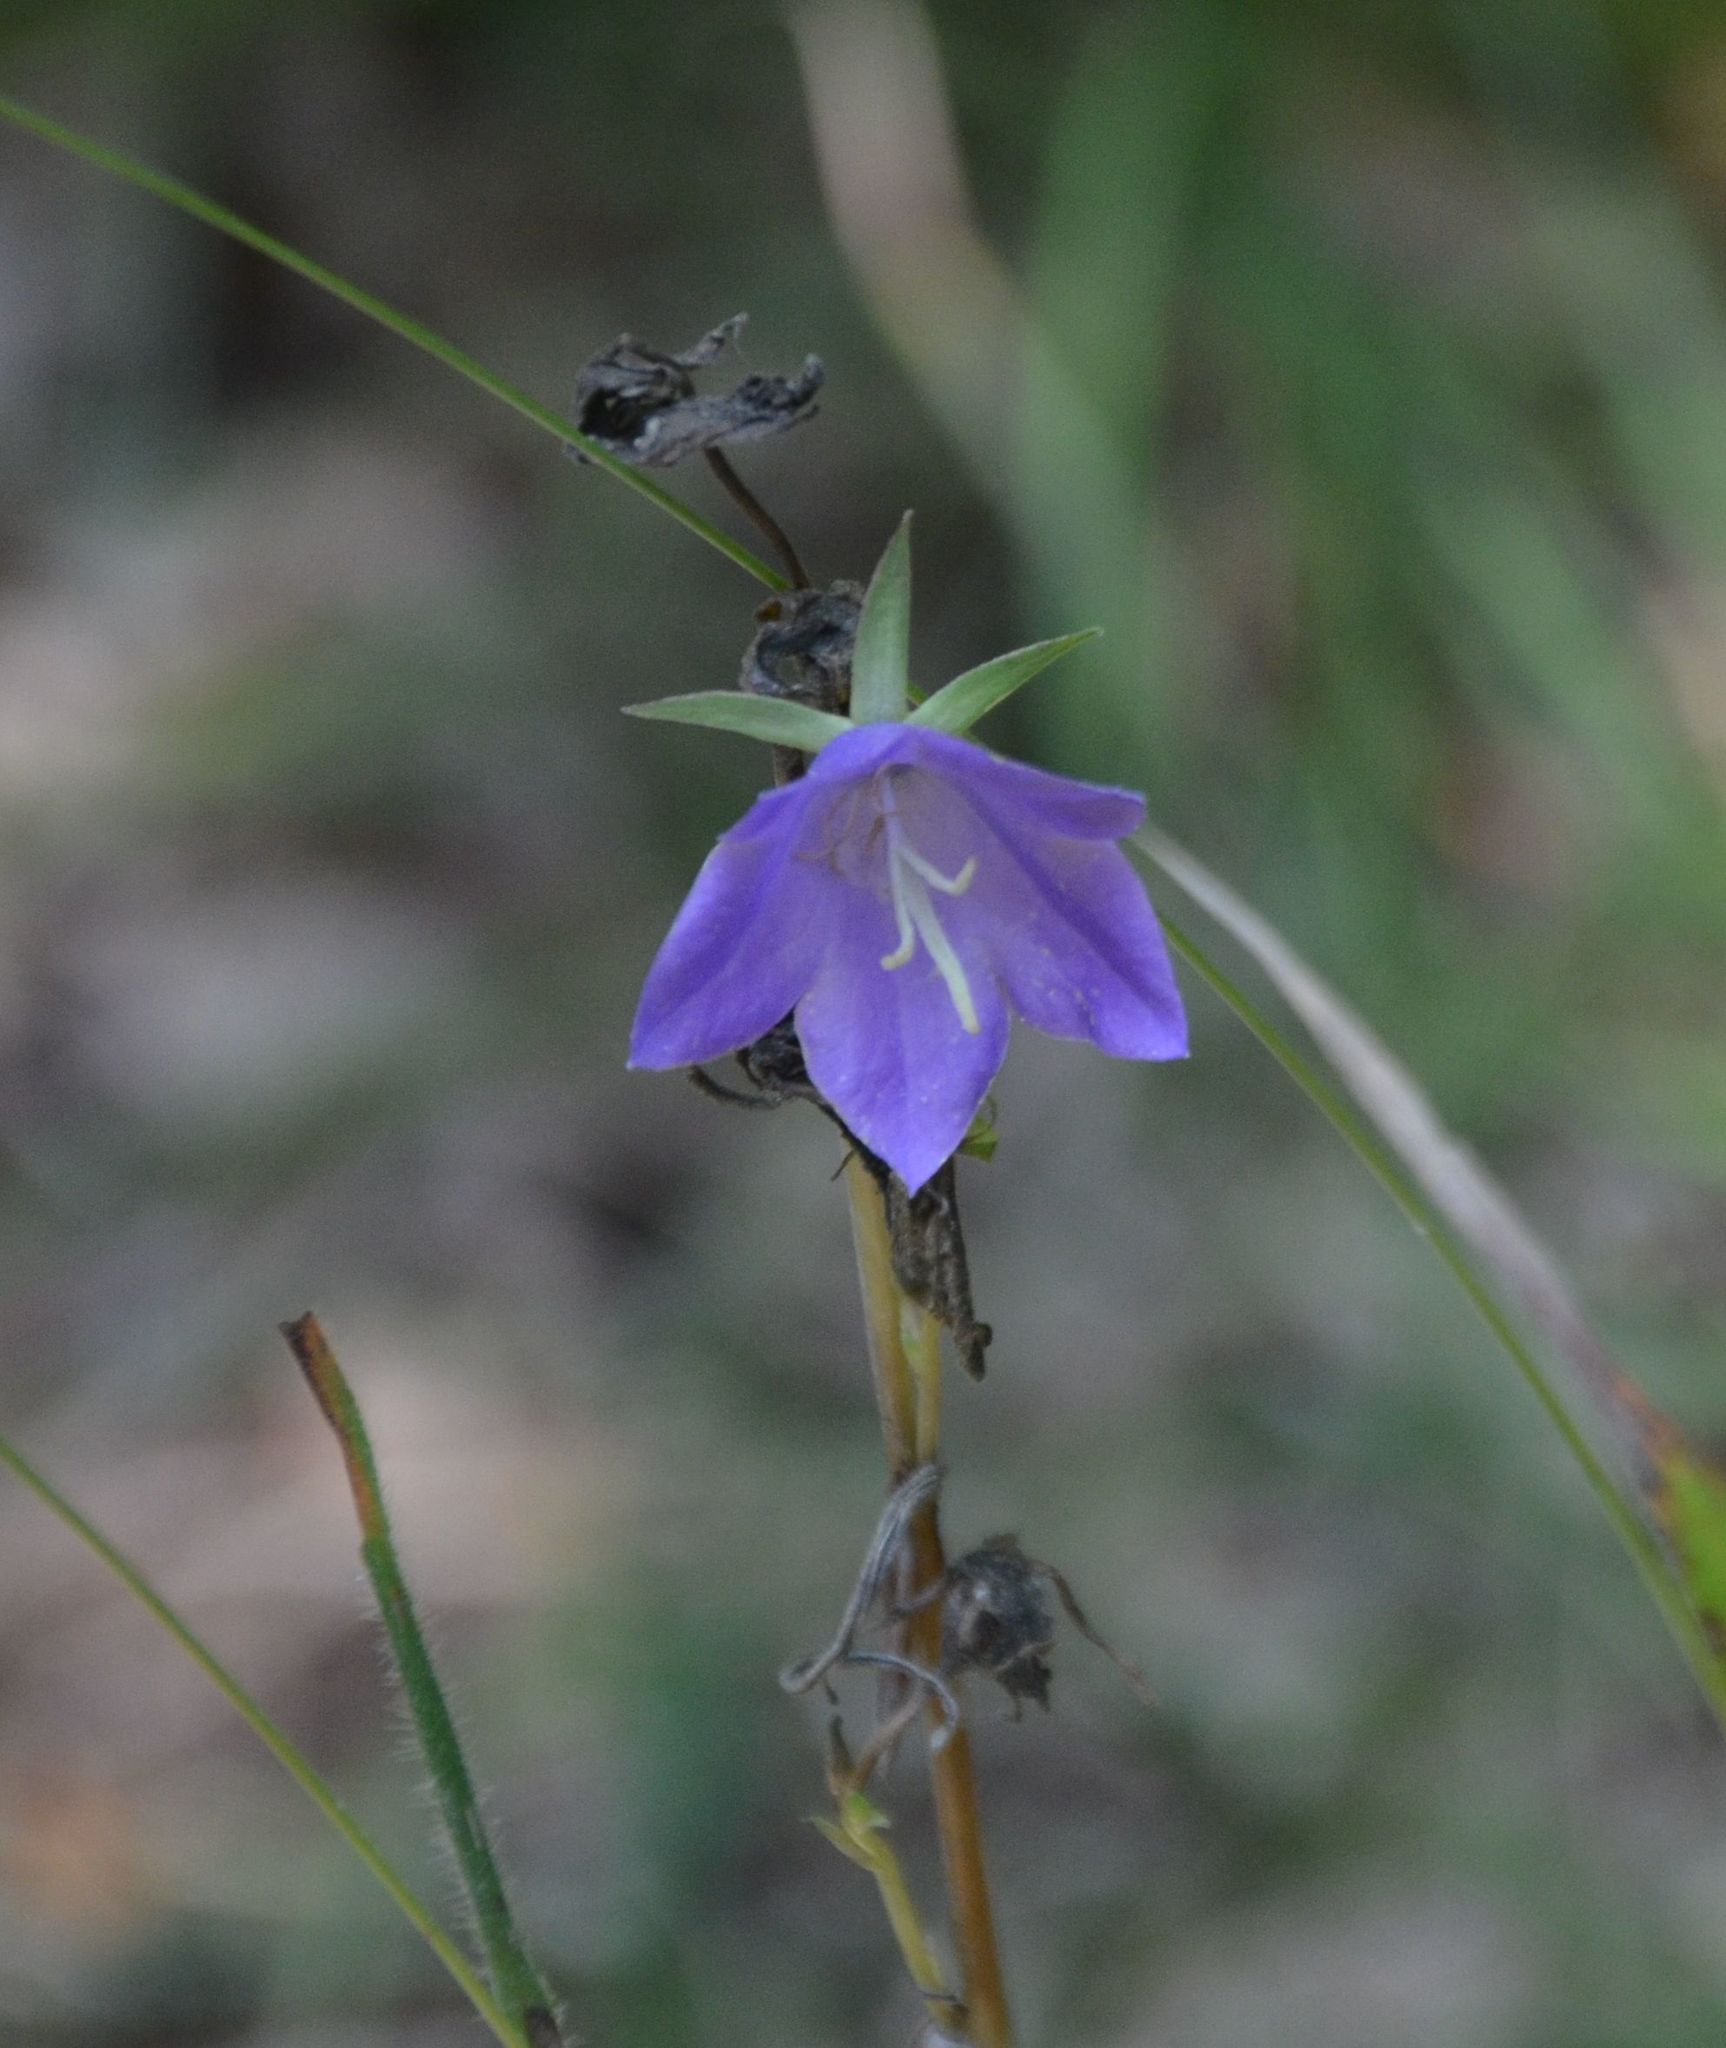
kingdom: Plantae
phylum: Tracheophyta
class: Magnoliopsida
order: Asterales
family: Campanulaceae
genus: Campanula
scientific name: Campanula persicifolia
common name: Peach-leaved bellflower
